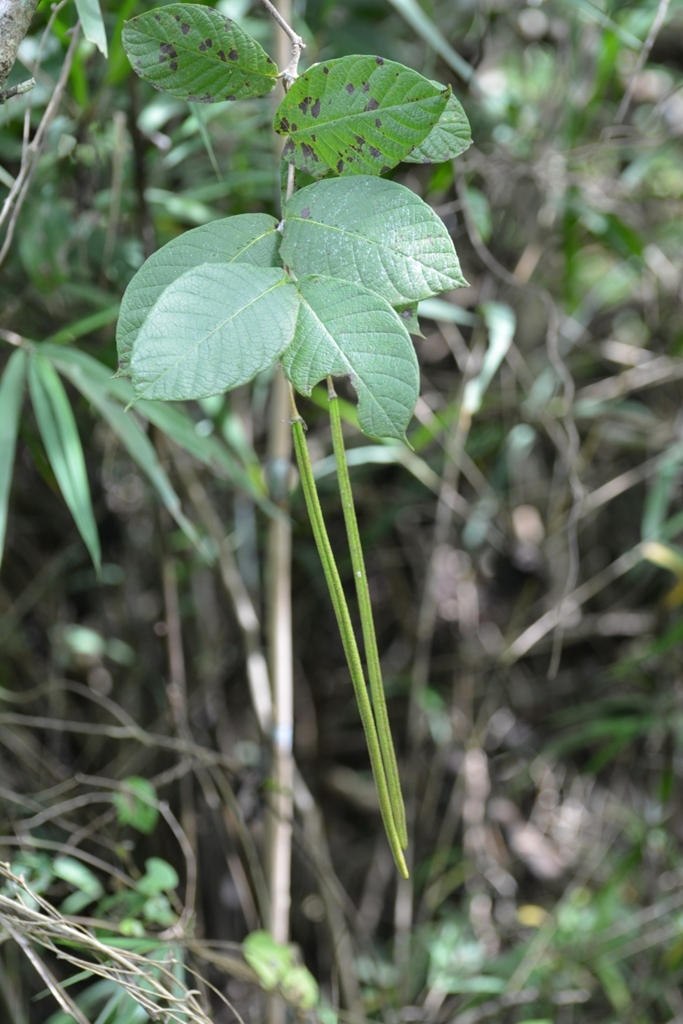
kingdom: Plantae
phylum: Tracheophyta
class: Magnoliopsida
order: Gentianales
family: Apocynaceae
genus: Mandevilla
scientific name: Mandevilla subsessilis
